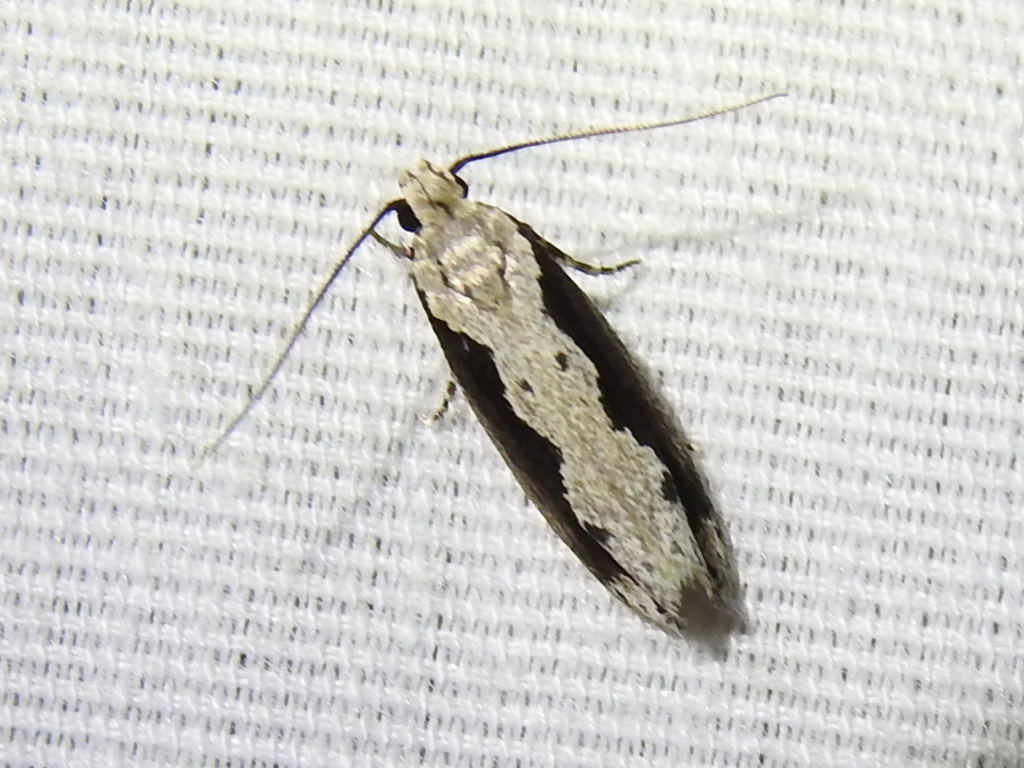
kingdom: Animalia
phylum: Arthropoda
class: Insecta
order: Lepidoptera
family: Ethmiidae
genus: Ethmia
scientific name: Ethmia semiombra
